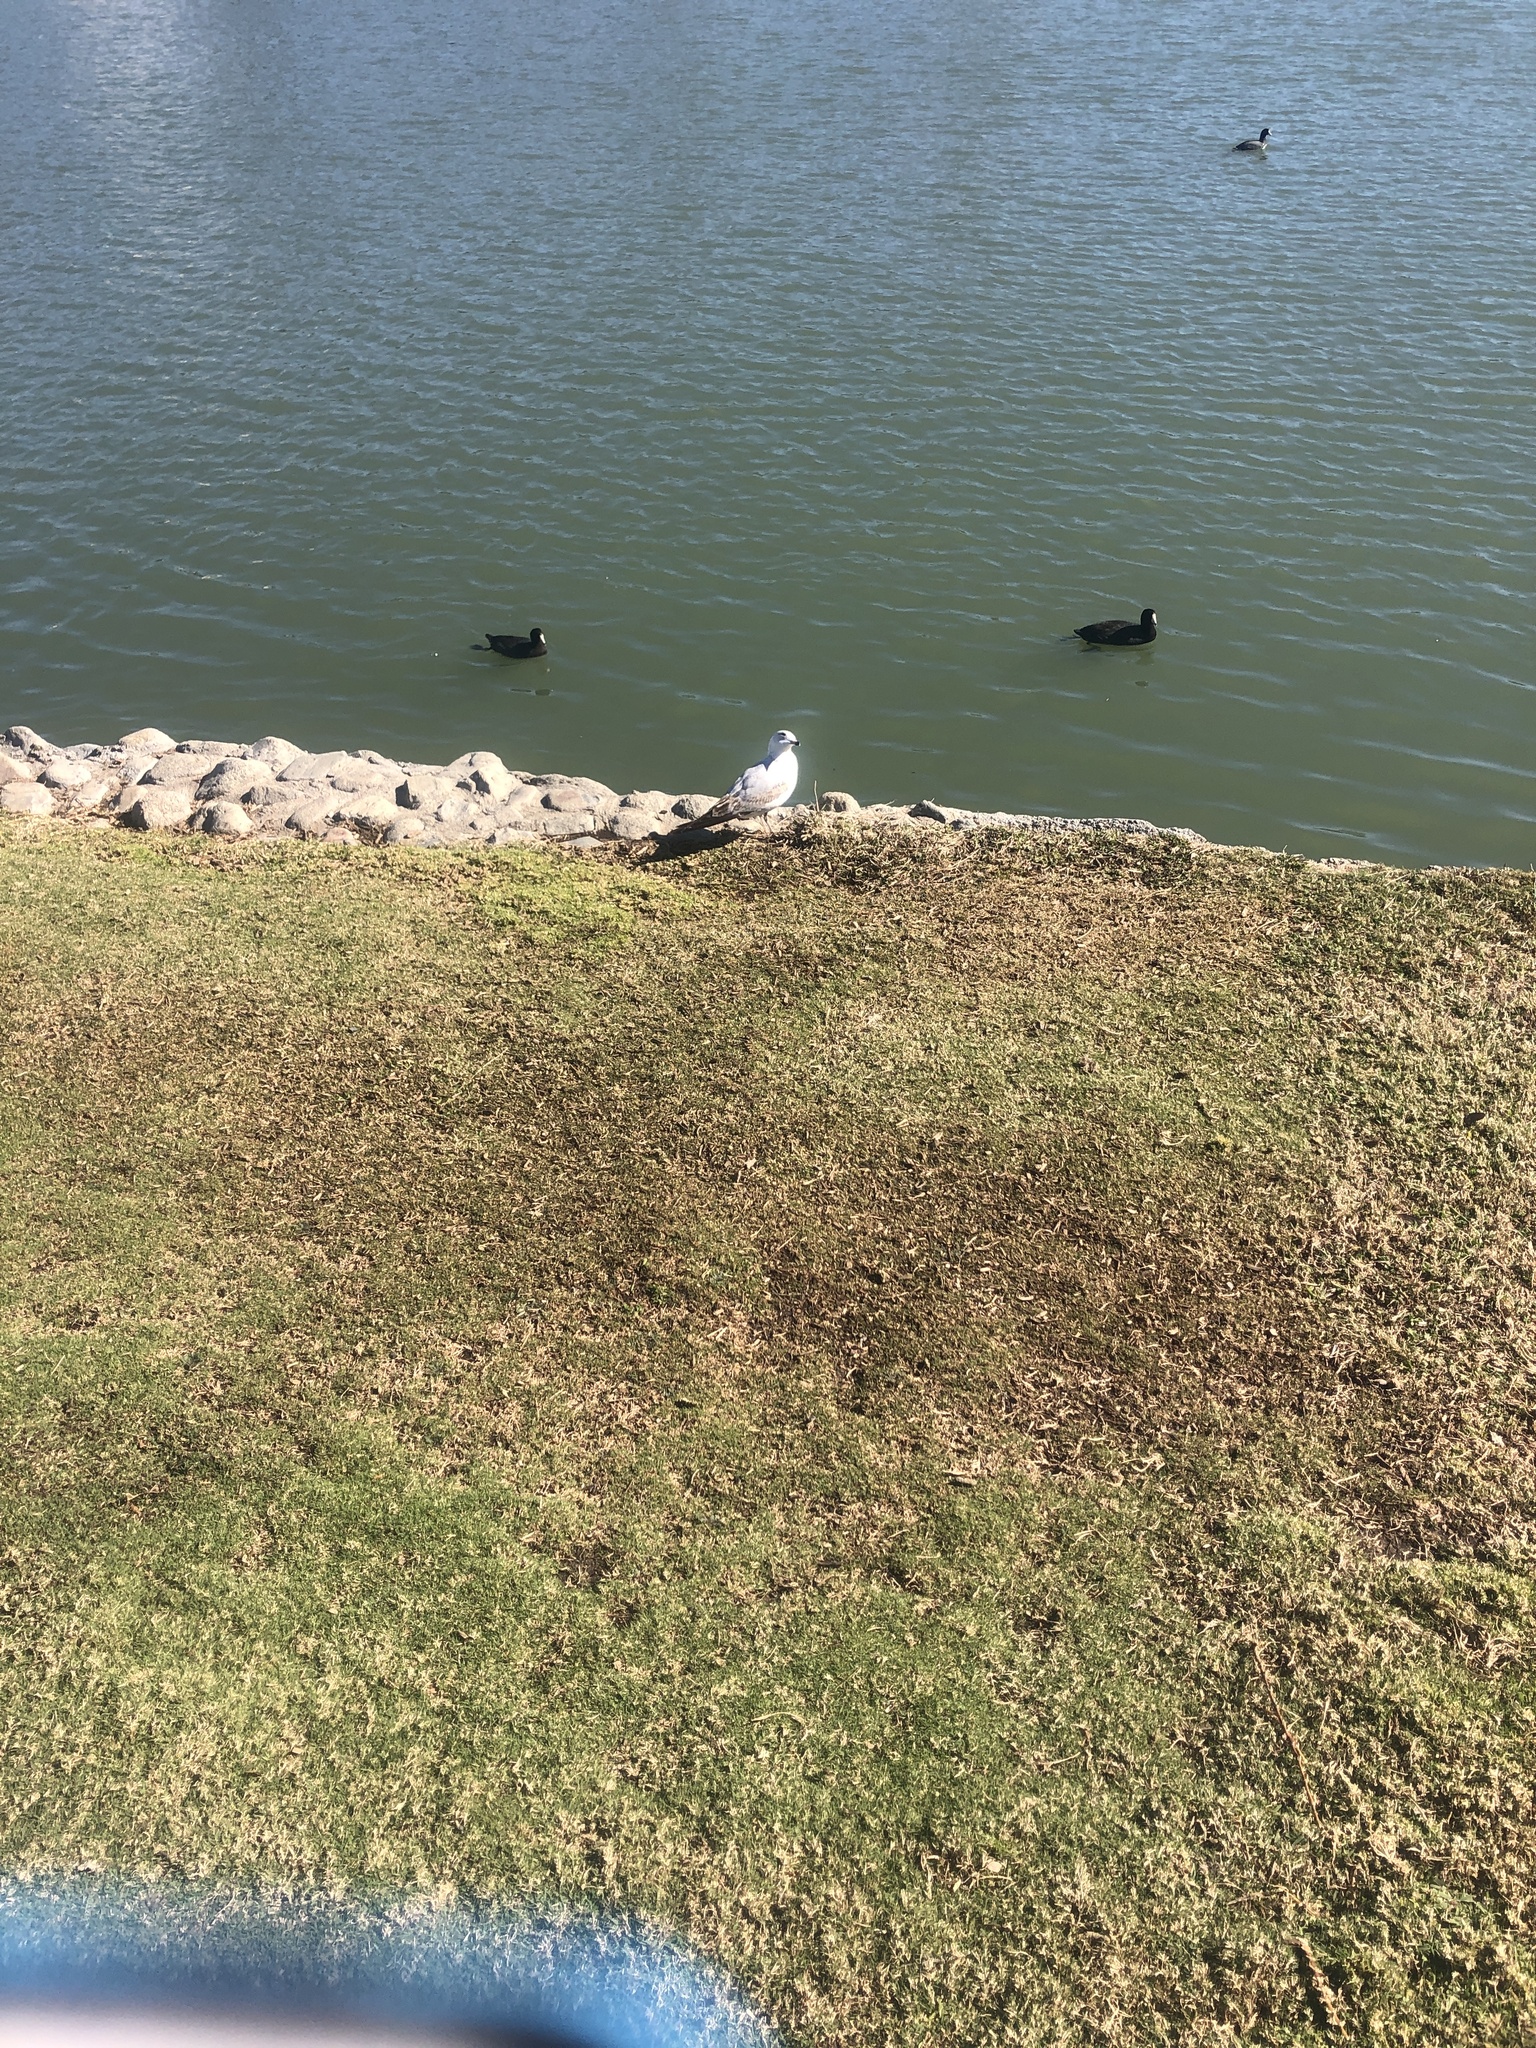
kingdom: Animalia
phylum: Chordata
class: Aves
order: Charadriiformes
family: Laridae
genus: Larus
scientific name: Larus delawarensis
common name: Ring-billed gull
